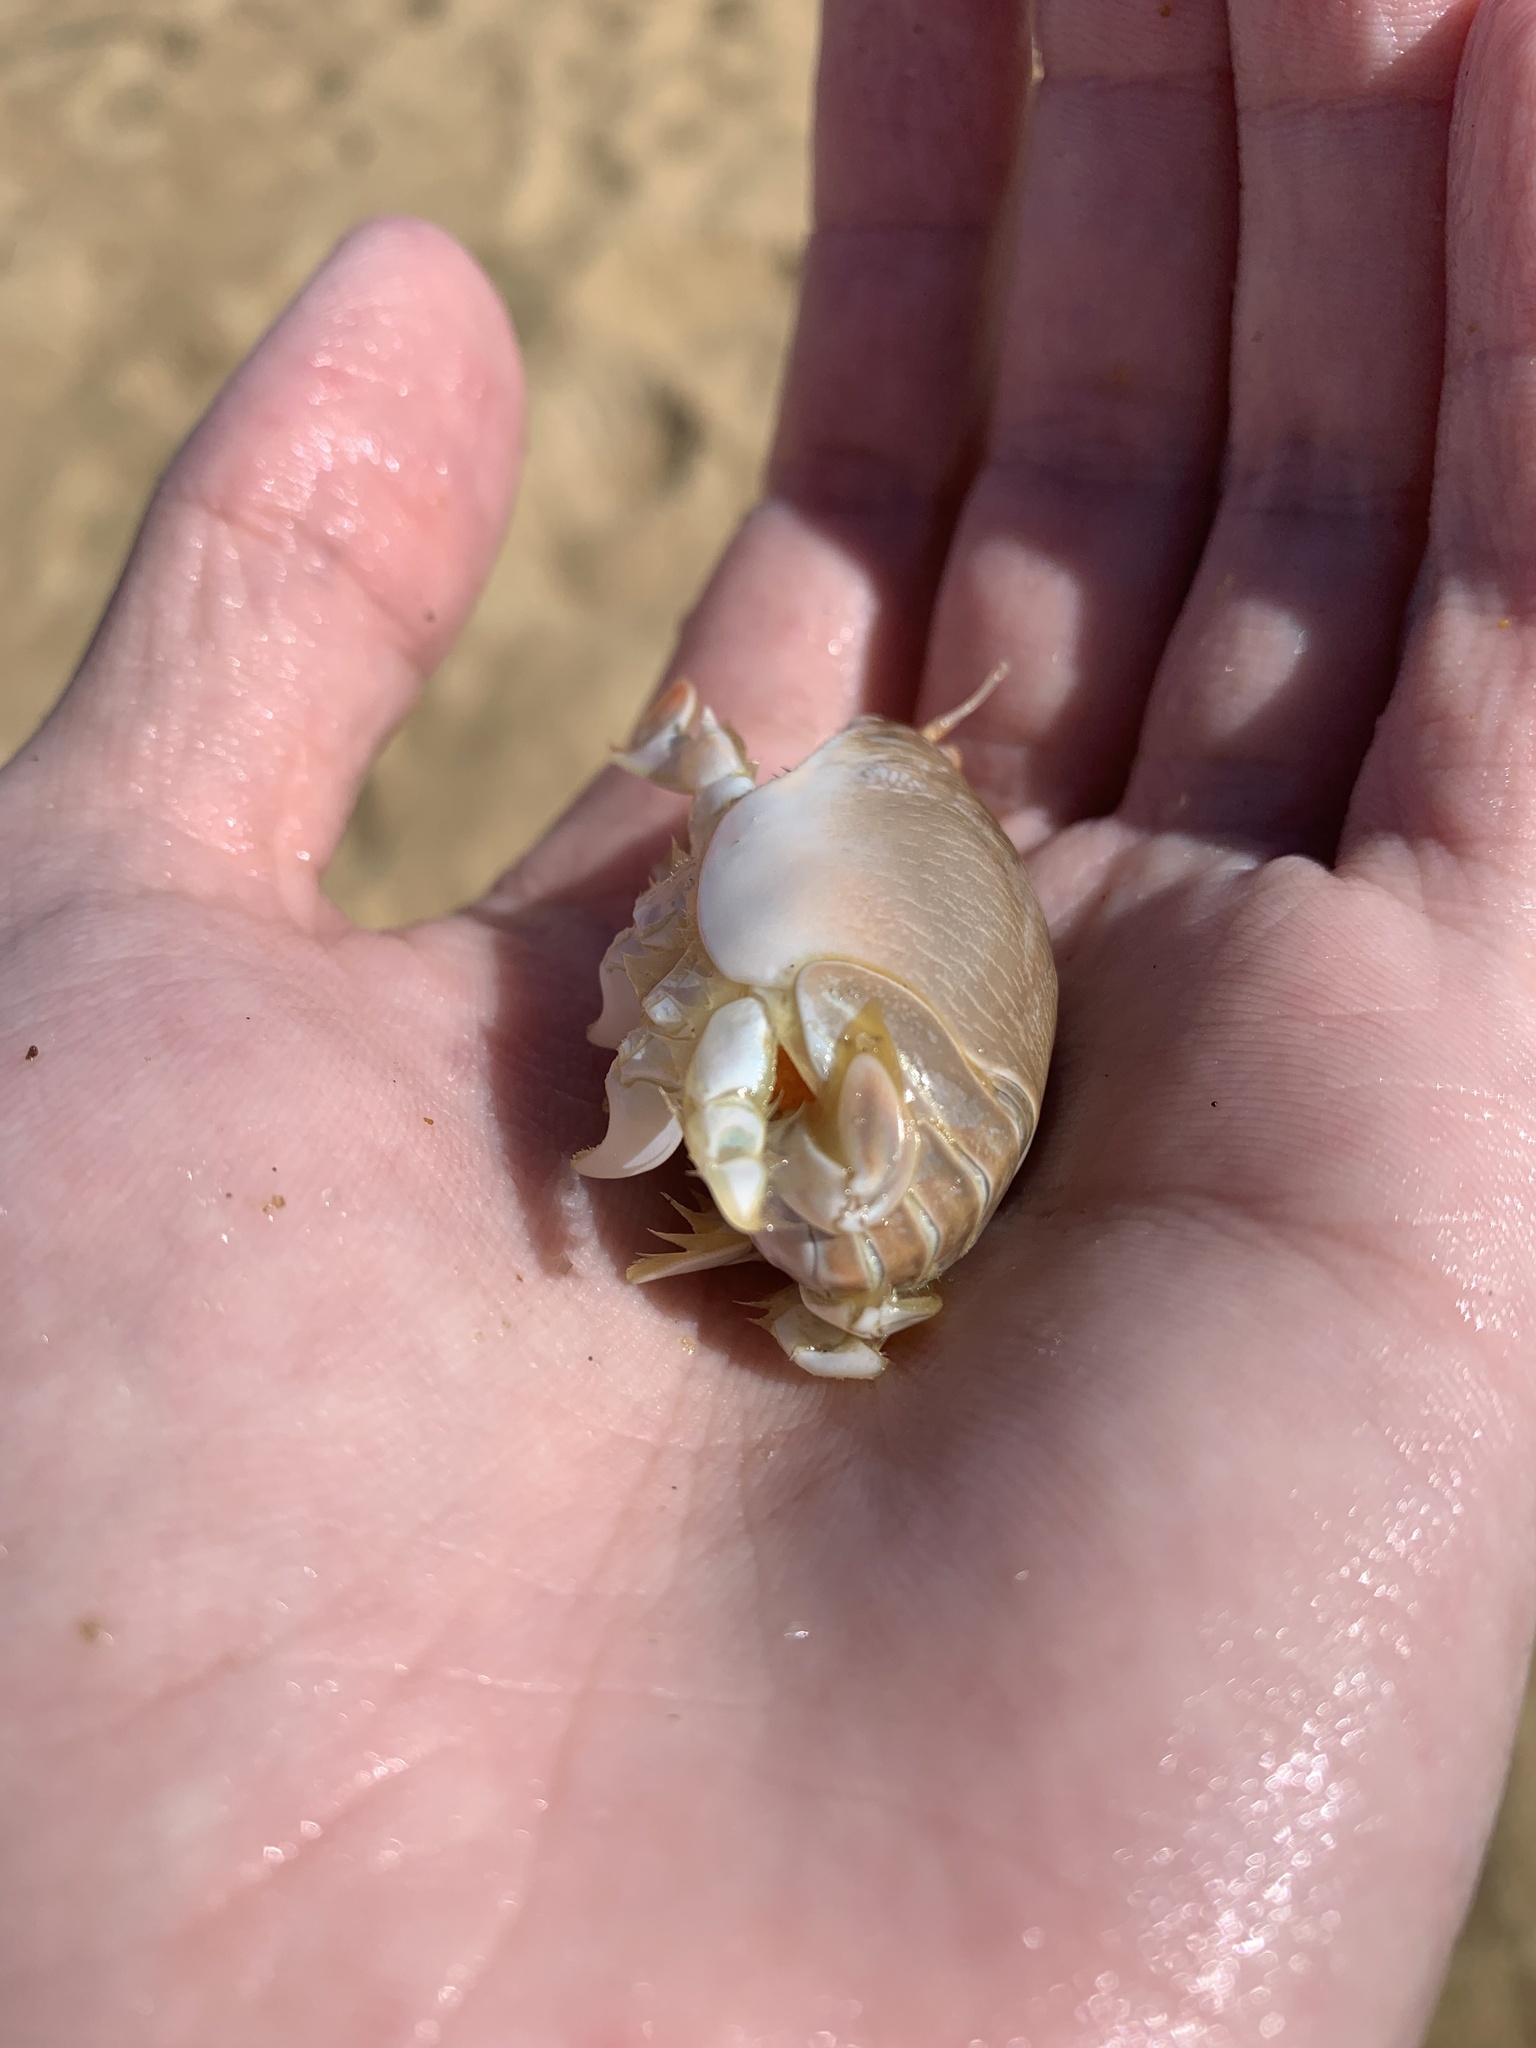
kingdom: Animalia
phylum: Arthropoda
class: Malacostraca
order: Decapoda
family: Hippidae
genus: Emerita
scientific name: Emerita brasiliensis
